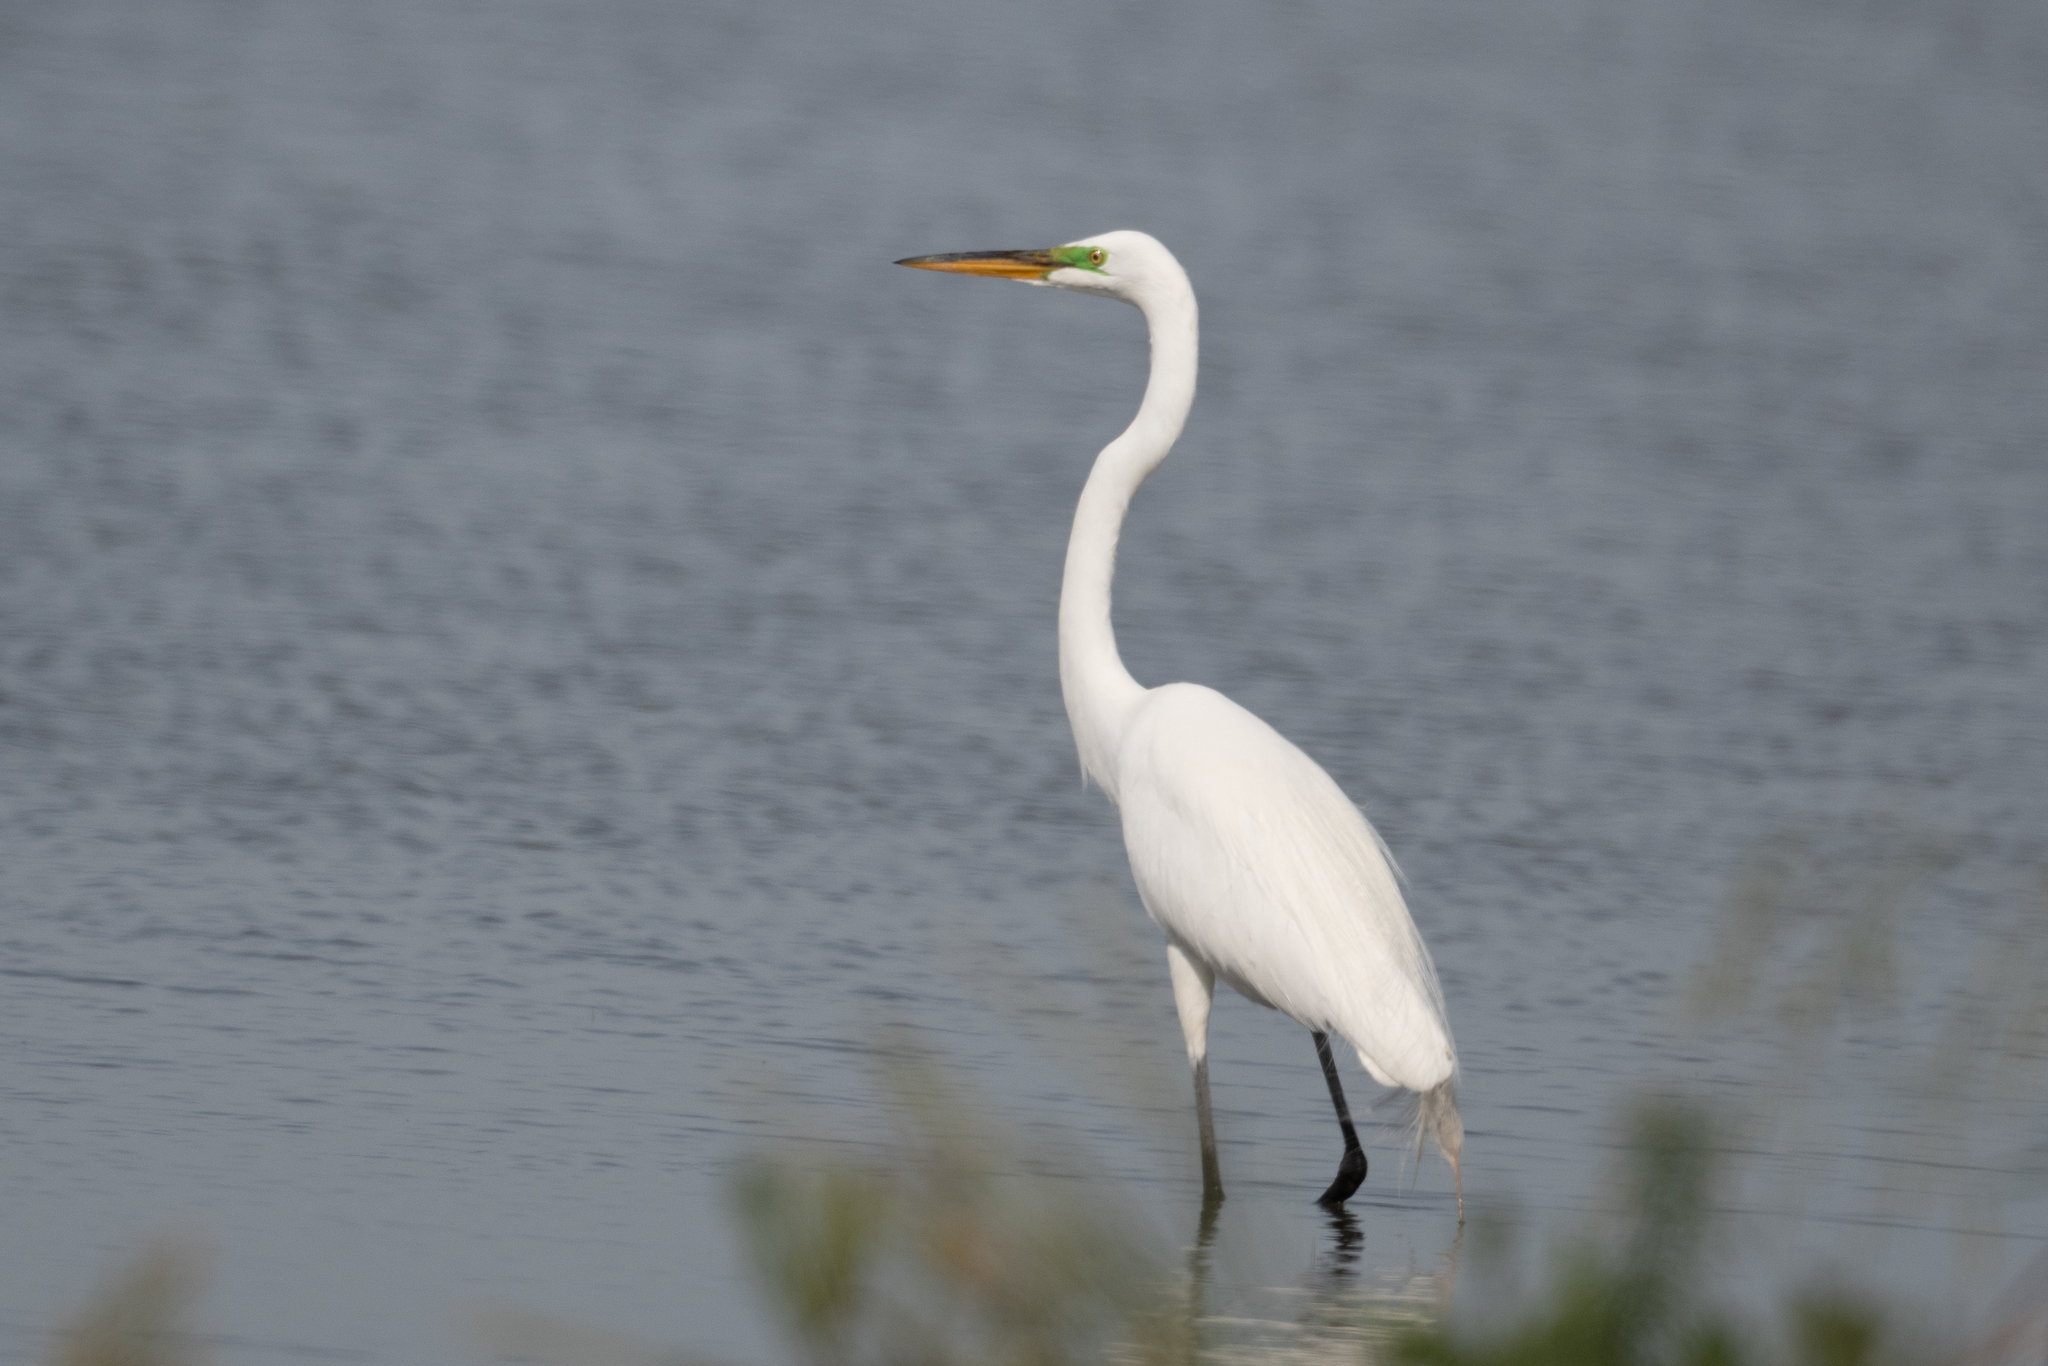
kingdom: Animalia
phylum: Chordata
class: Aves
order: Pelecaniformes
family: Ardeidae
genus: Ardea
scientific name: Ardea alba
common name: Great egret
